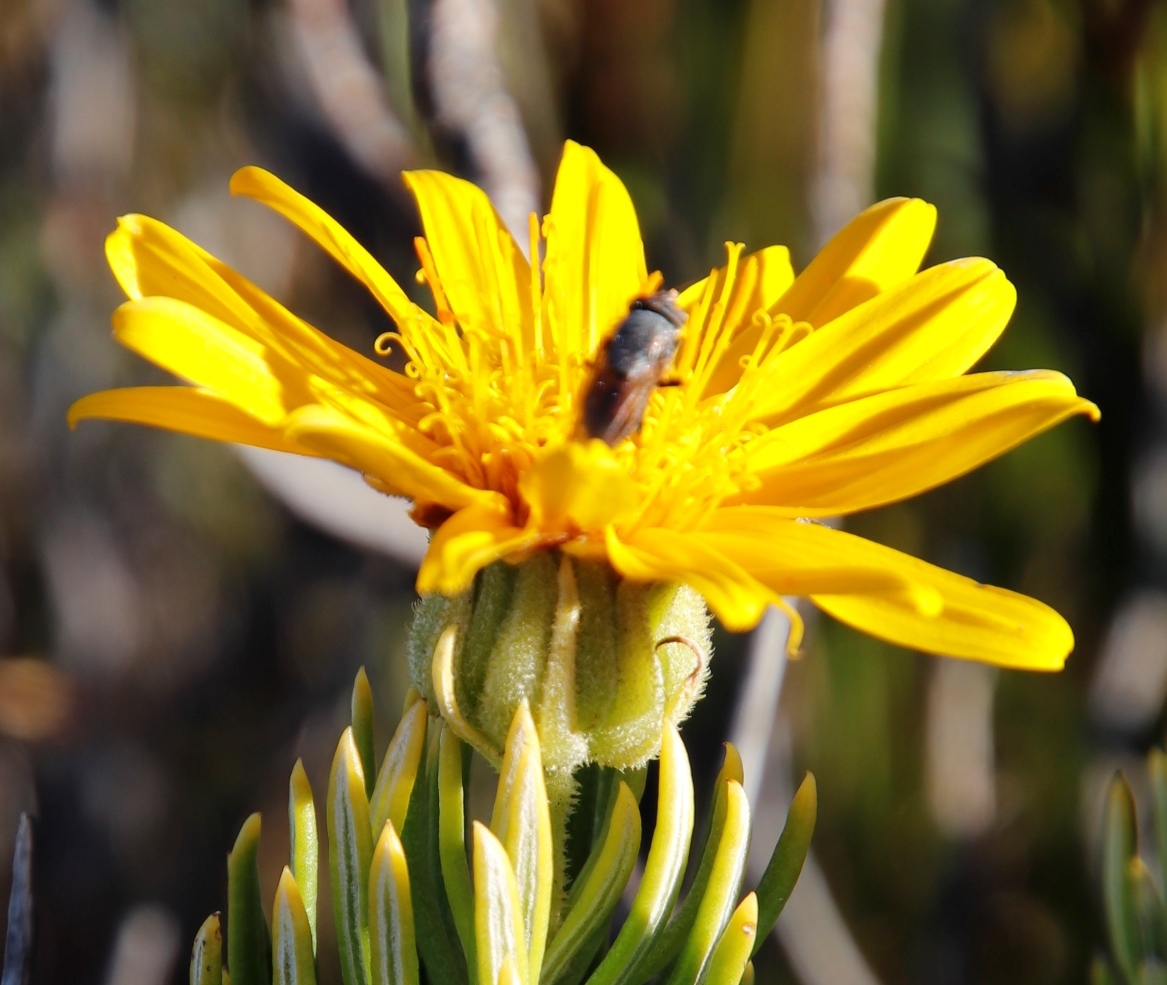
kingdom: Plantae
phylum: Tracheophyta
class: Magnoliopsida
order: Asterales
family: Asteraceae
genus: Heterolepis
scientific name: Heterolepis aliena
